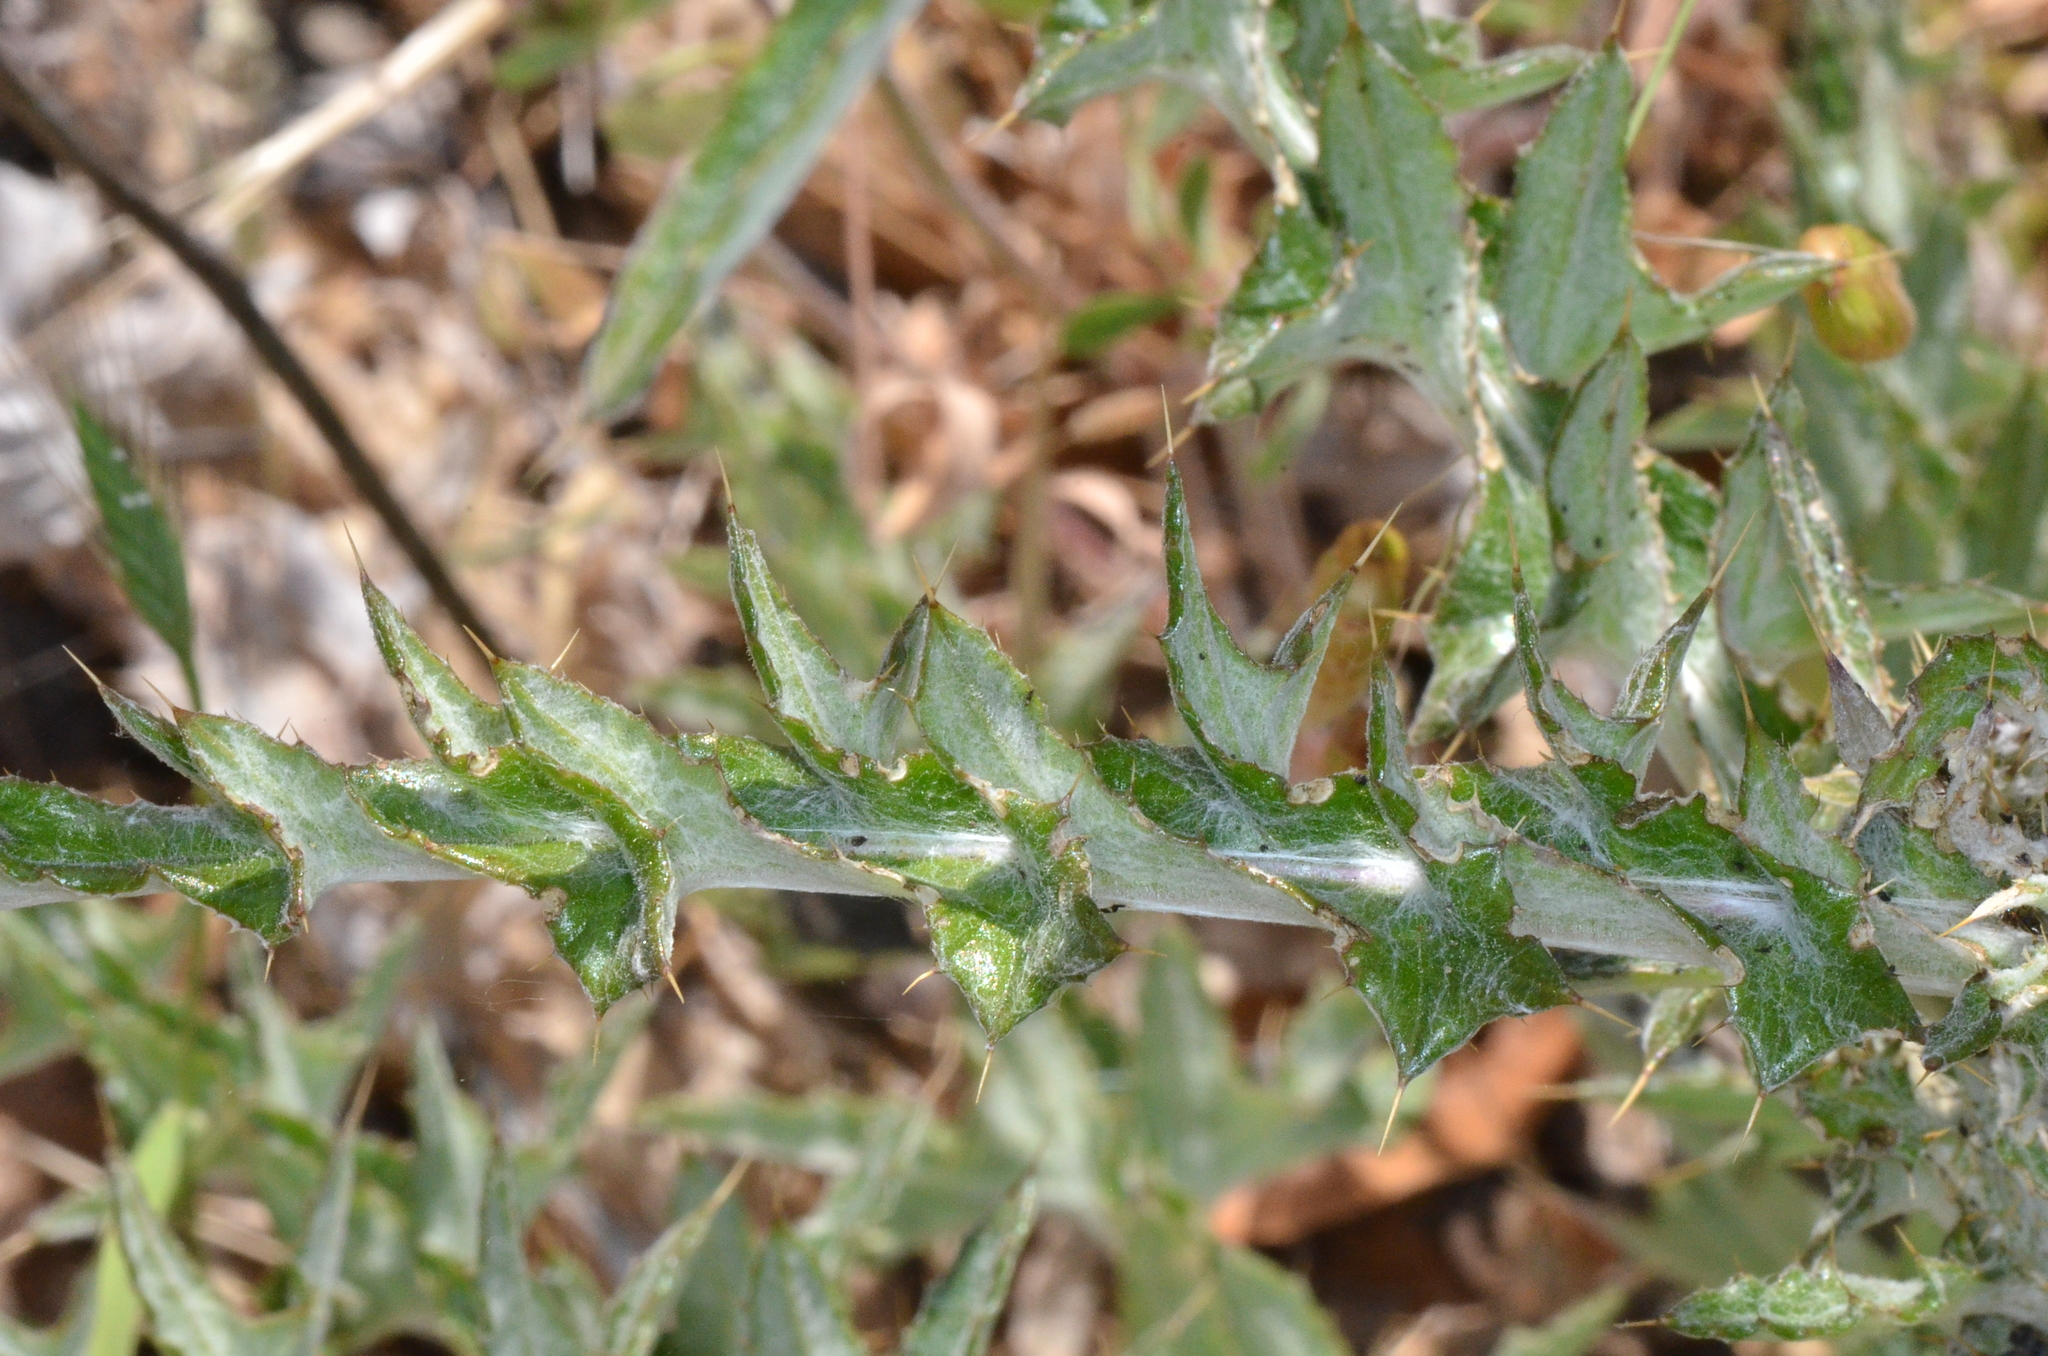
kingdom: Plantae
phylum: Tracheophyta
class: Magnoliopsida
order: Asterales
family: Asteraceae
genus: Cirsium
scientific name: Cirsium occidentale
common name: Western thistle
